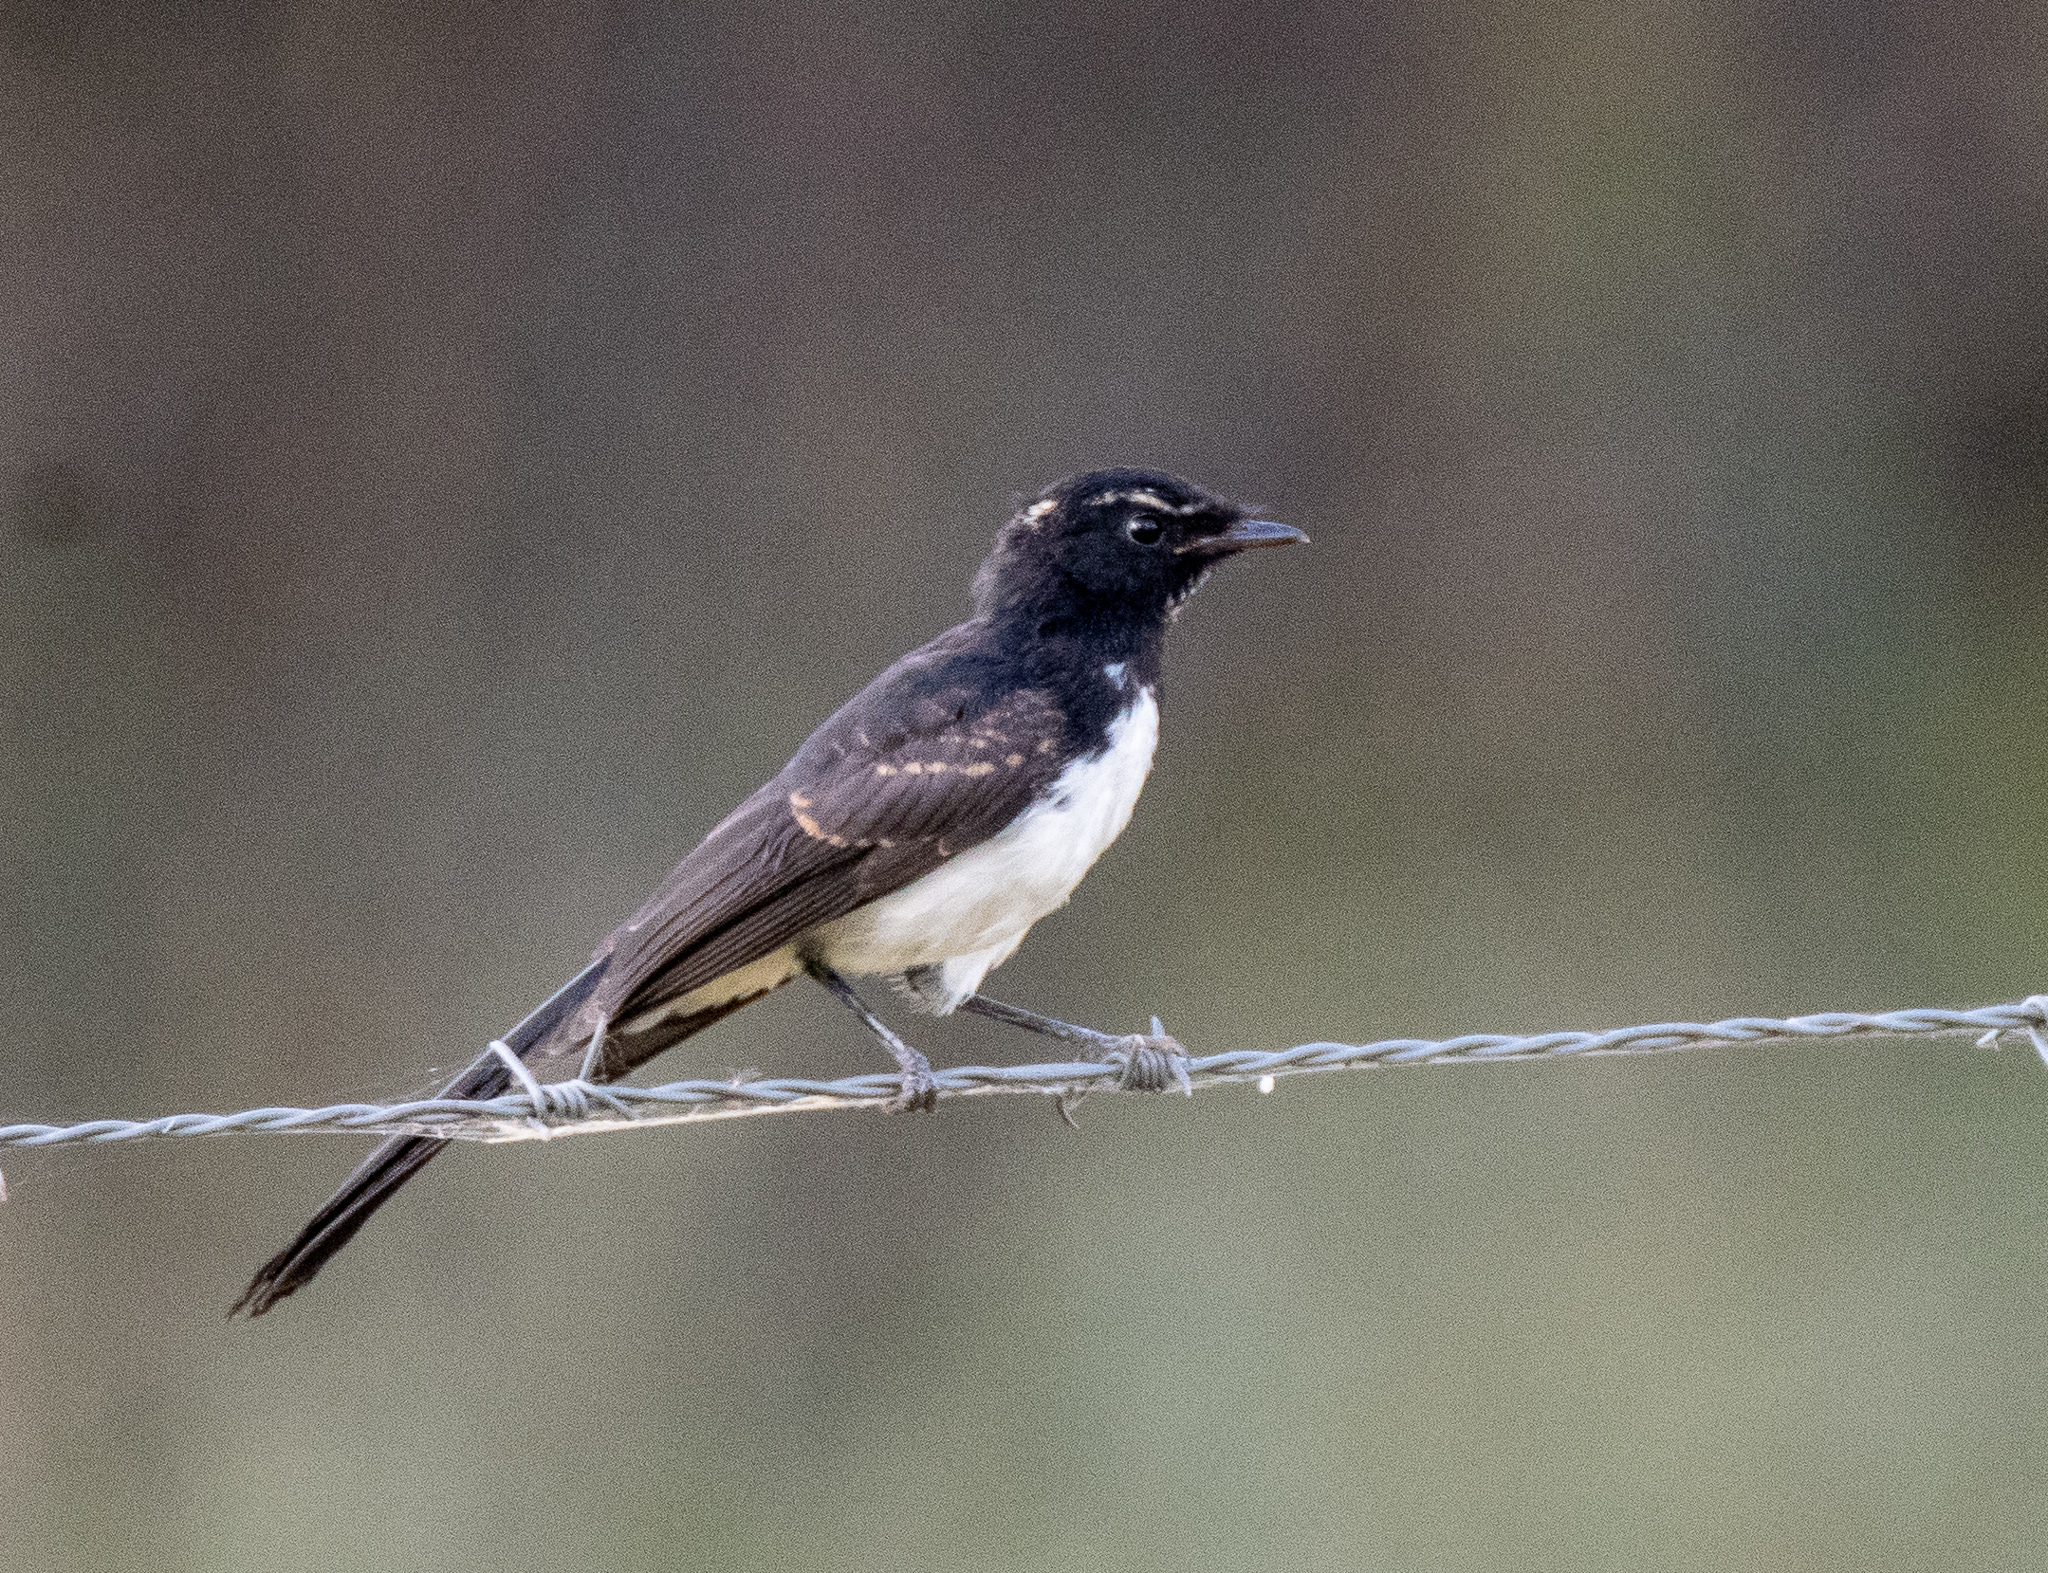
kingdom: Animalia
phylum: Chordata
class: Aves
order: Passeriformes
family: Rhipiduridae
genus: Rhipidura
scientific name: Rhipidura leucophrys
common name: Willie wagtail
